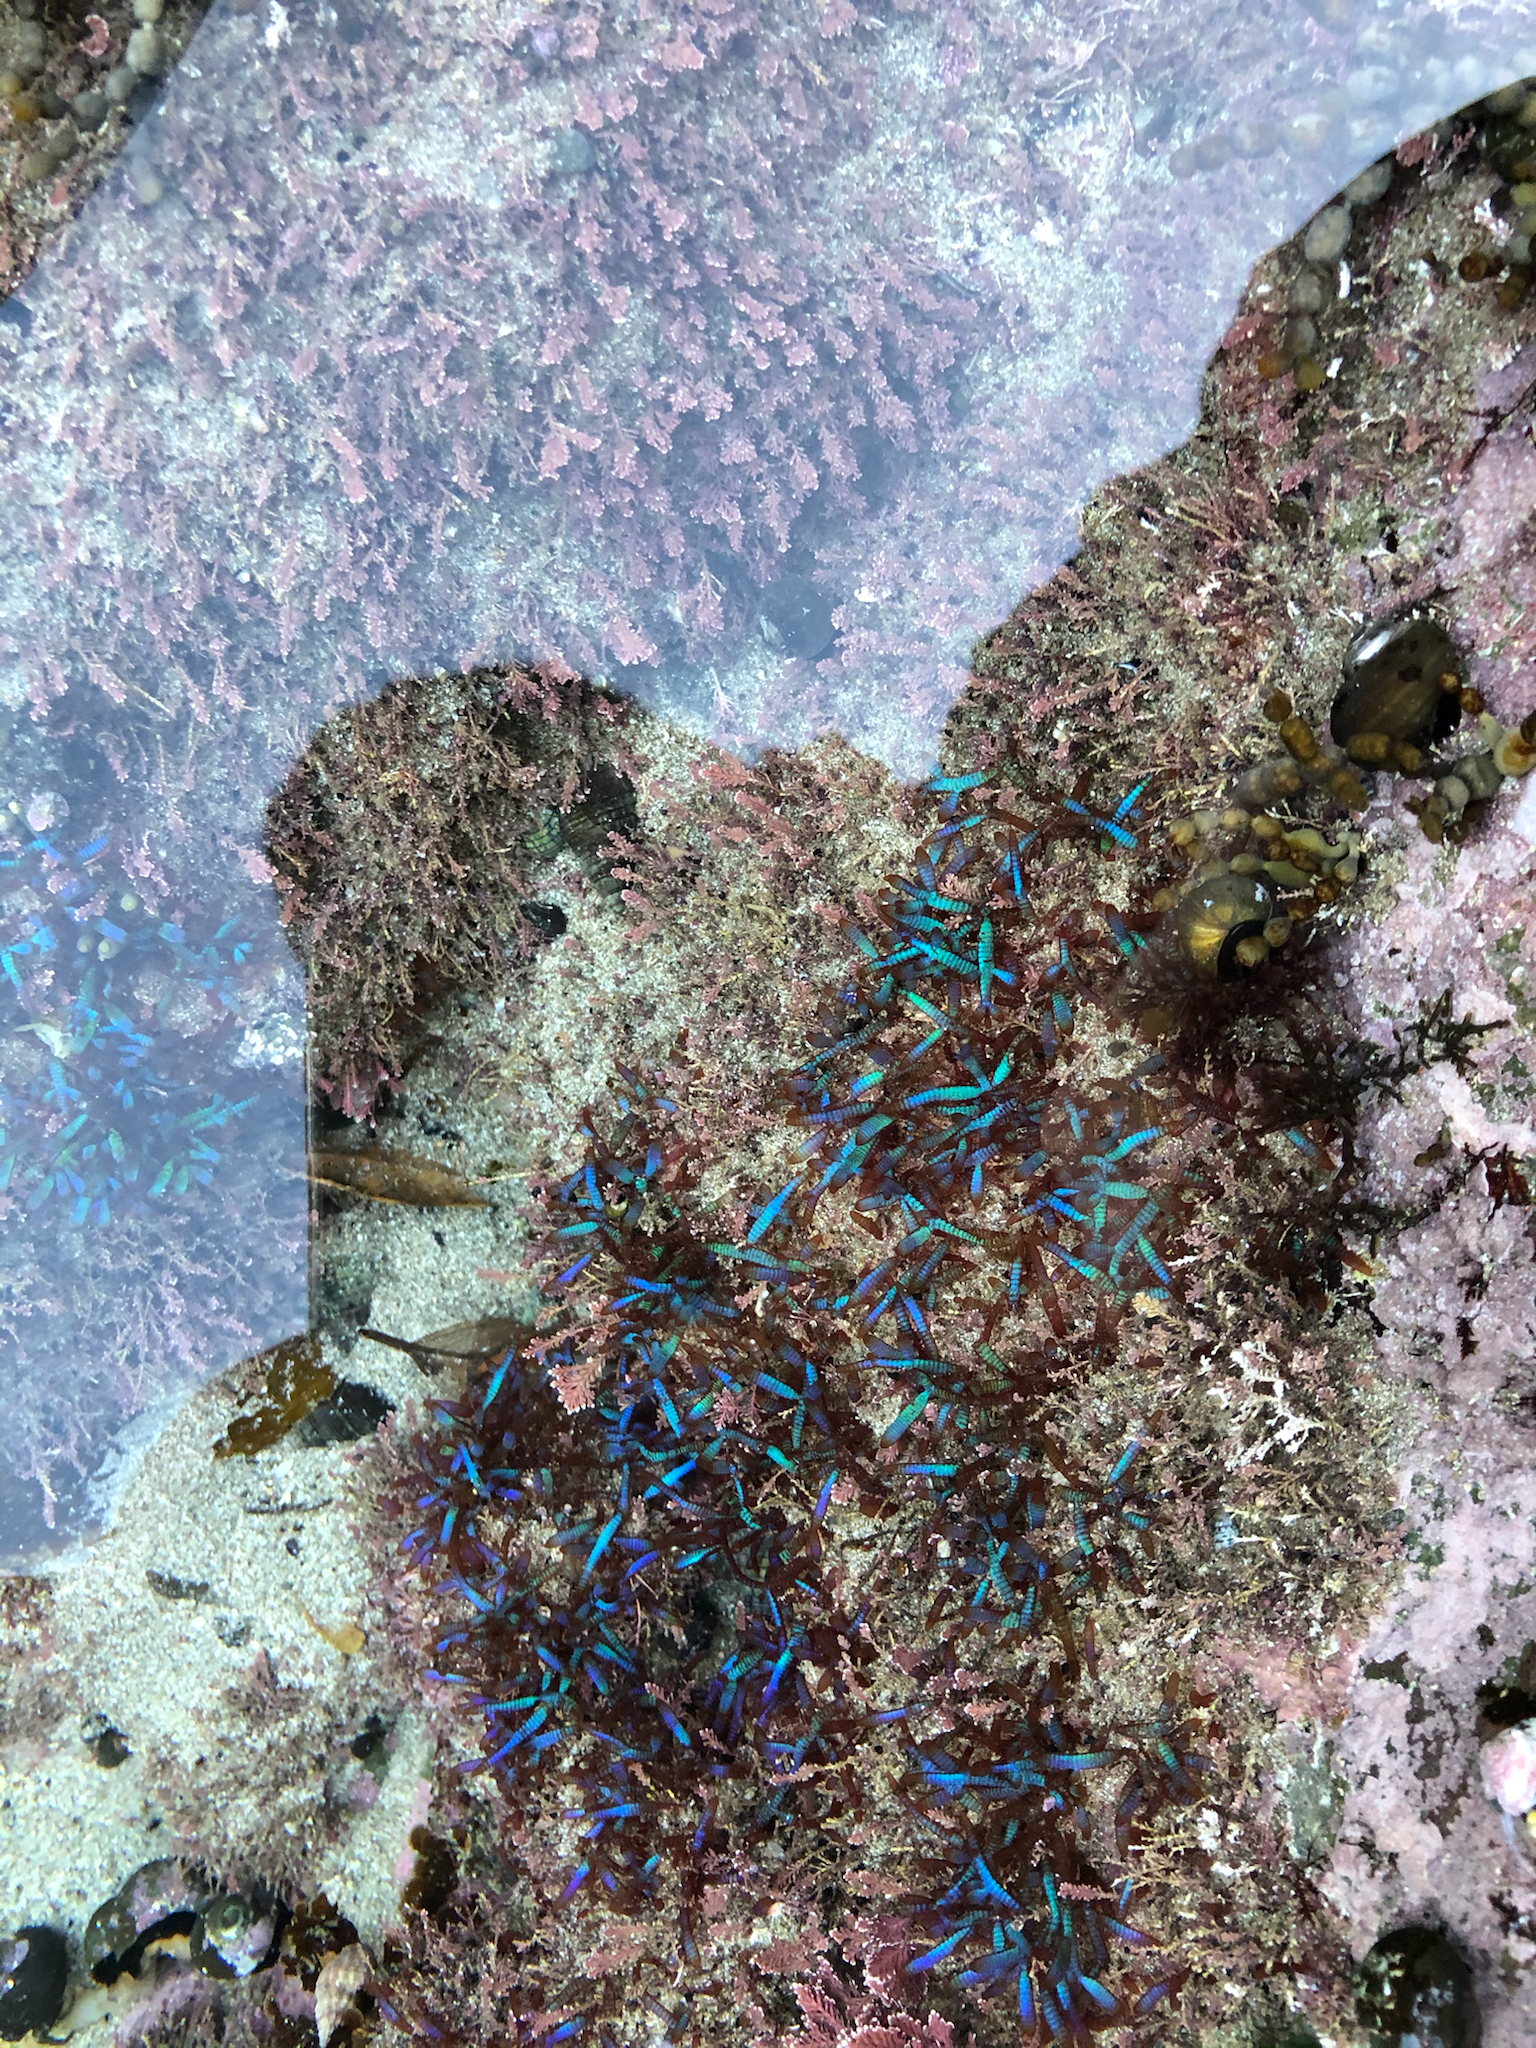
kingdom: Plantae
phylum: Rhodophyta
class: Florideophyceae
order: Rhodymeniales
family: Champiaceae
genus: Champia
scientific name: Champia laingii
